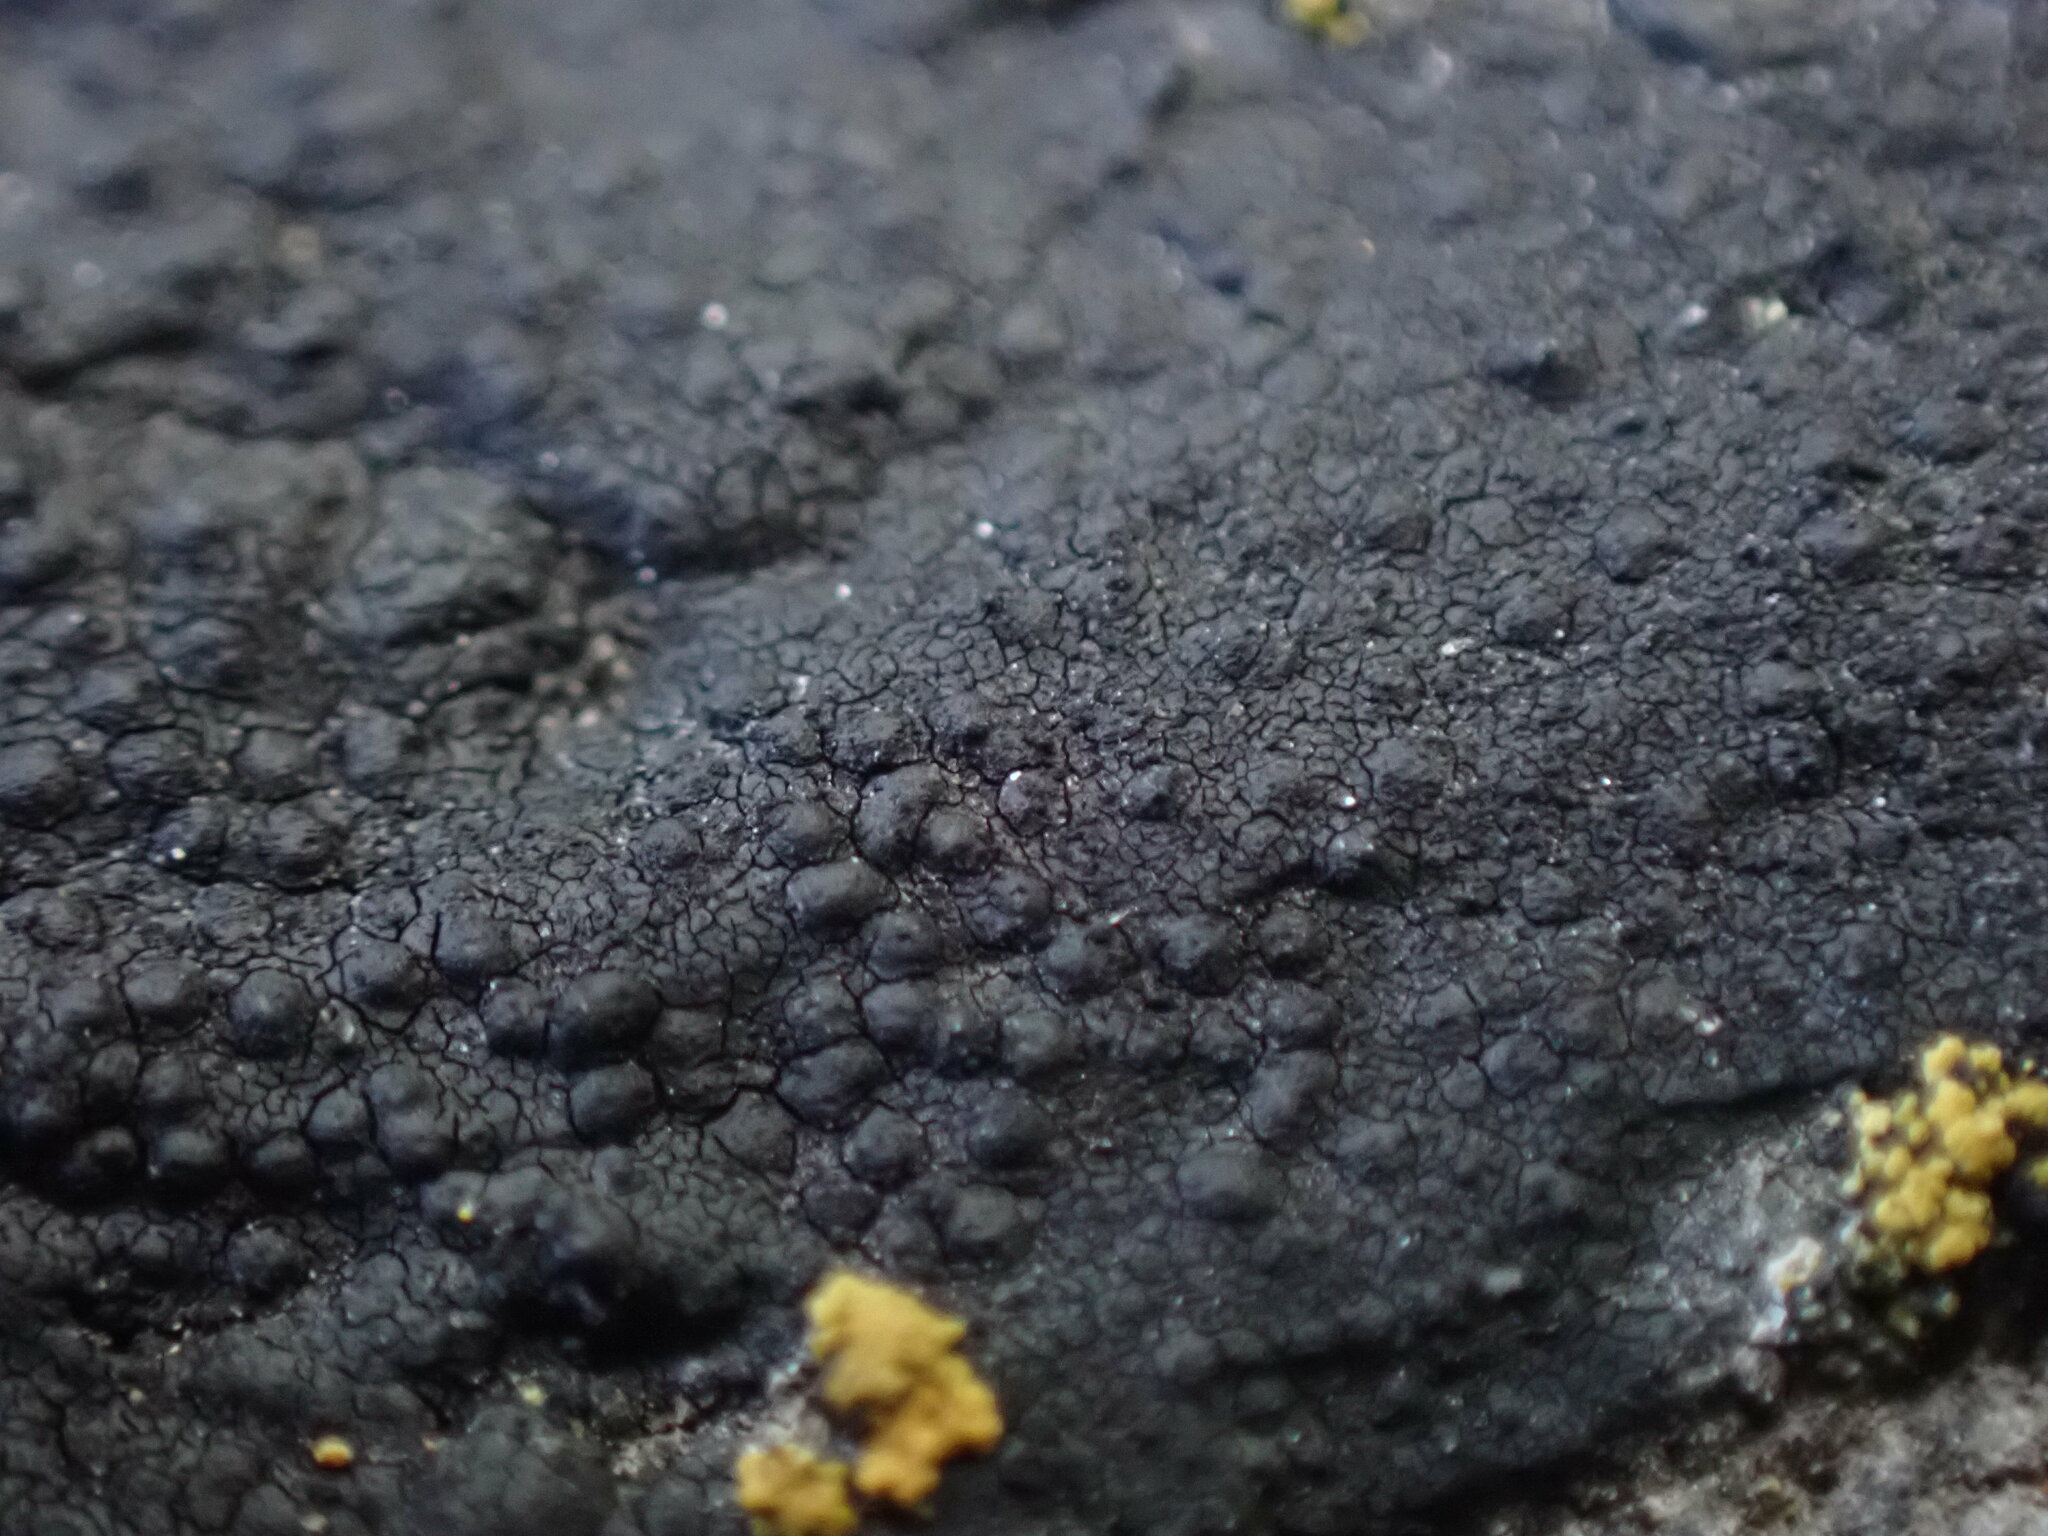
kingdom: Fungi
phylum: Ascomycota
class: Eurotiomycetes
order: Verrucariales
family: Verrucariaceae
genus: Hydropunctaria
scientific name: Hydropunctaria maura
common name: Tar lichen
